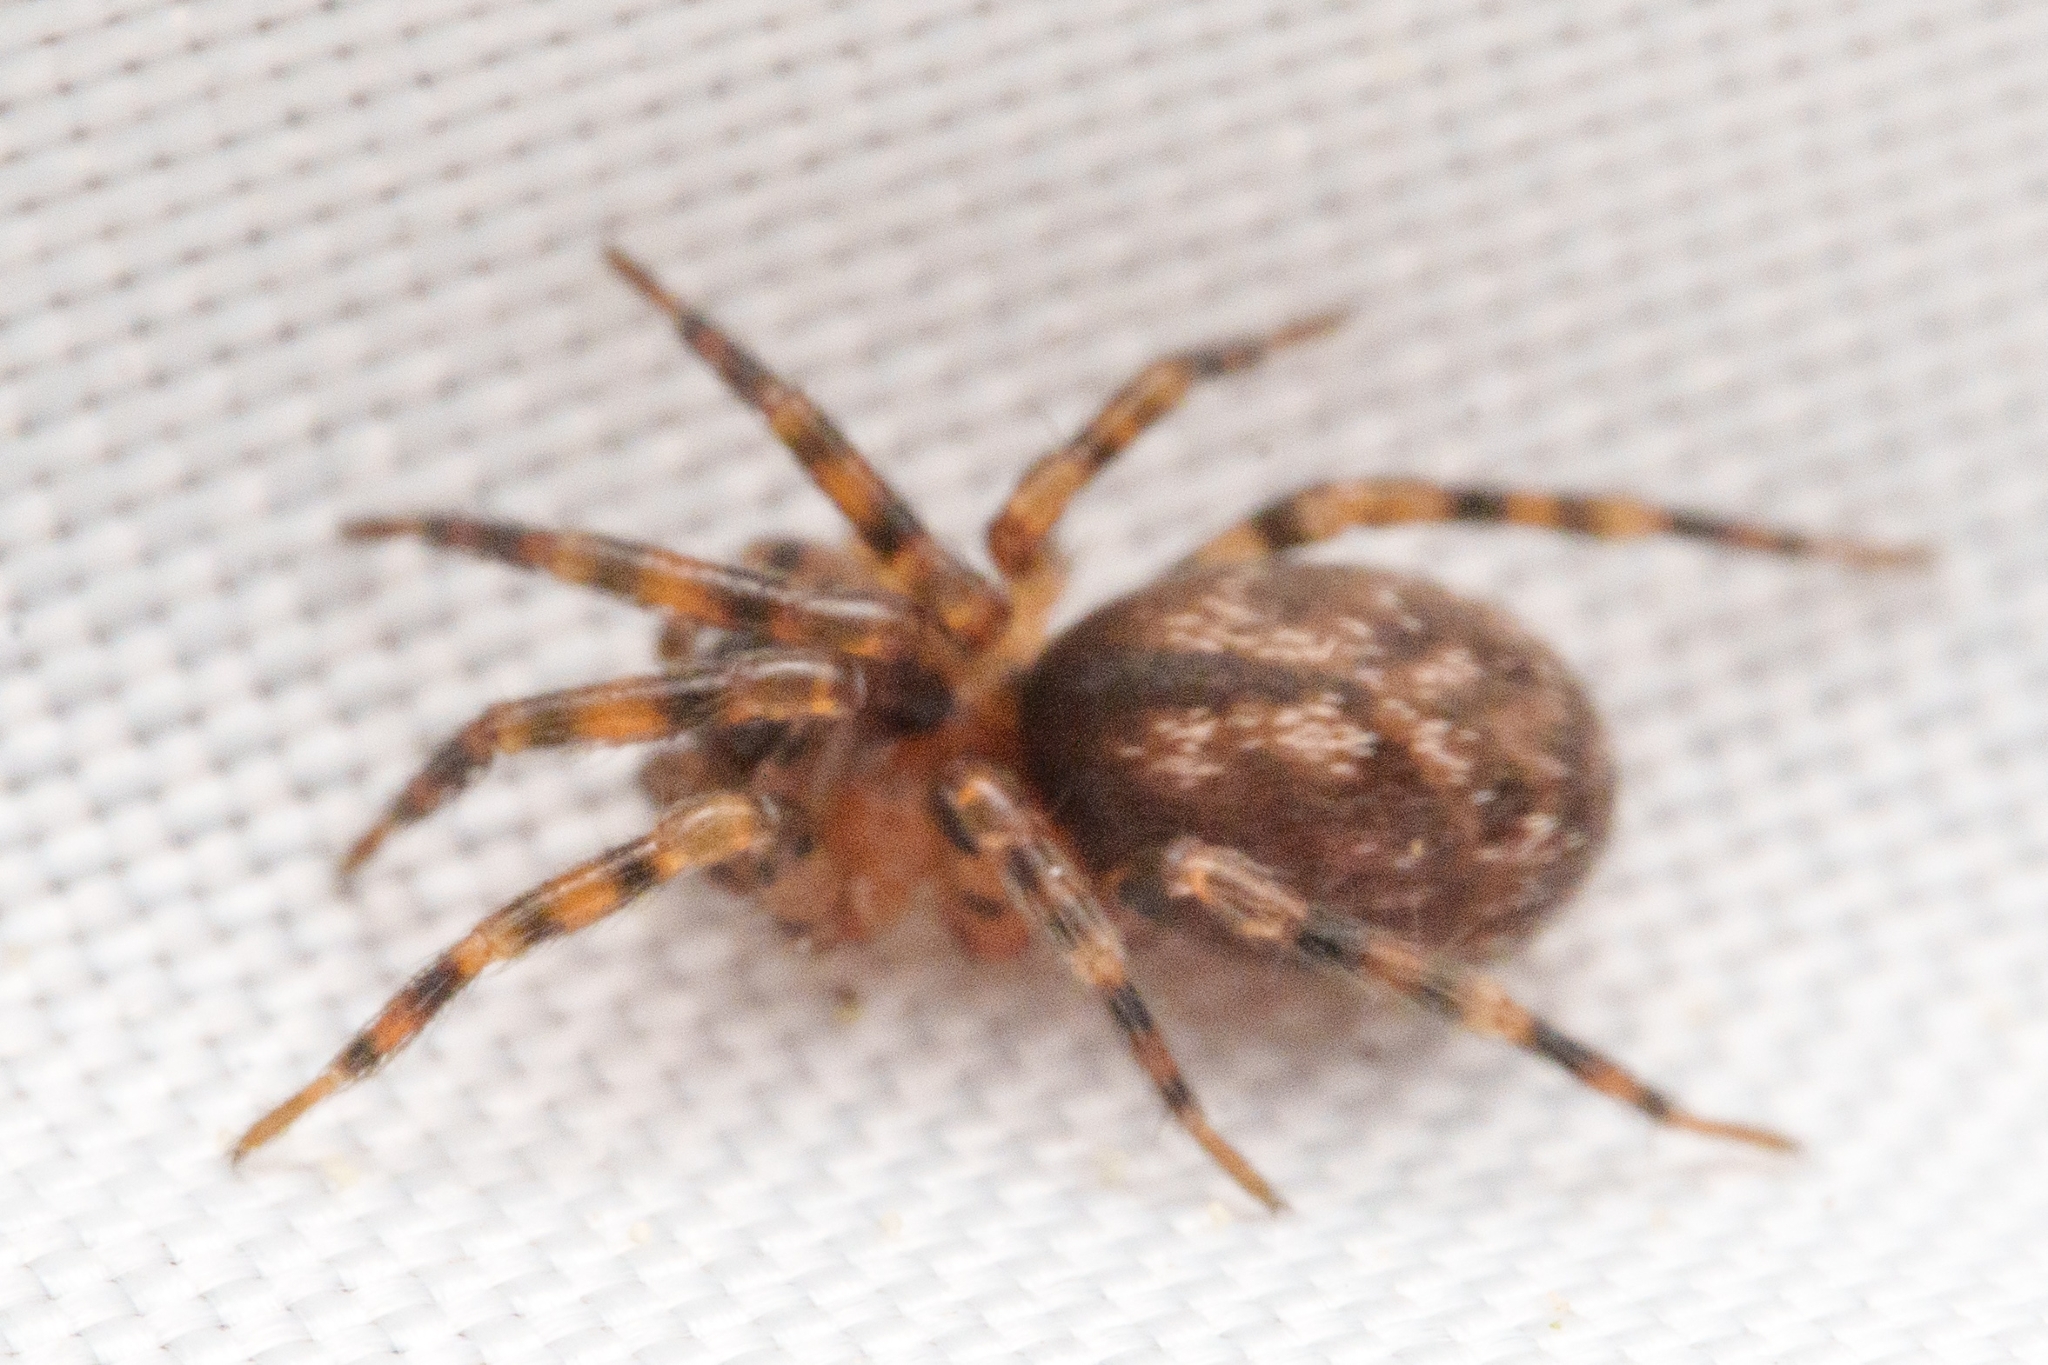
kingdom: Animalia
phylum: Arthropoda
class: Arachnida
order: Araneae
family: Cybaeidae
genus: Cryphoeca
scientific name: Cryphoeca exlineae
